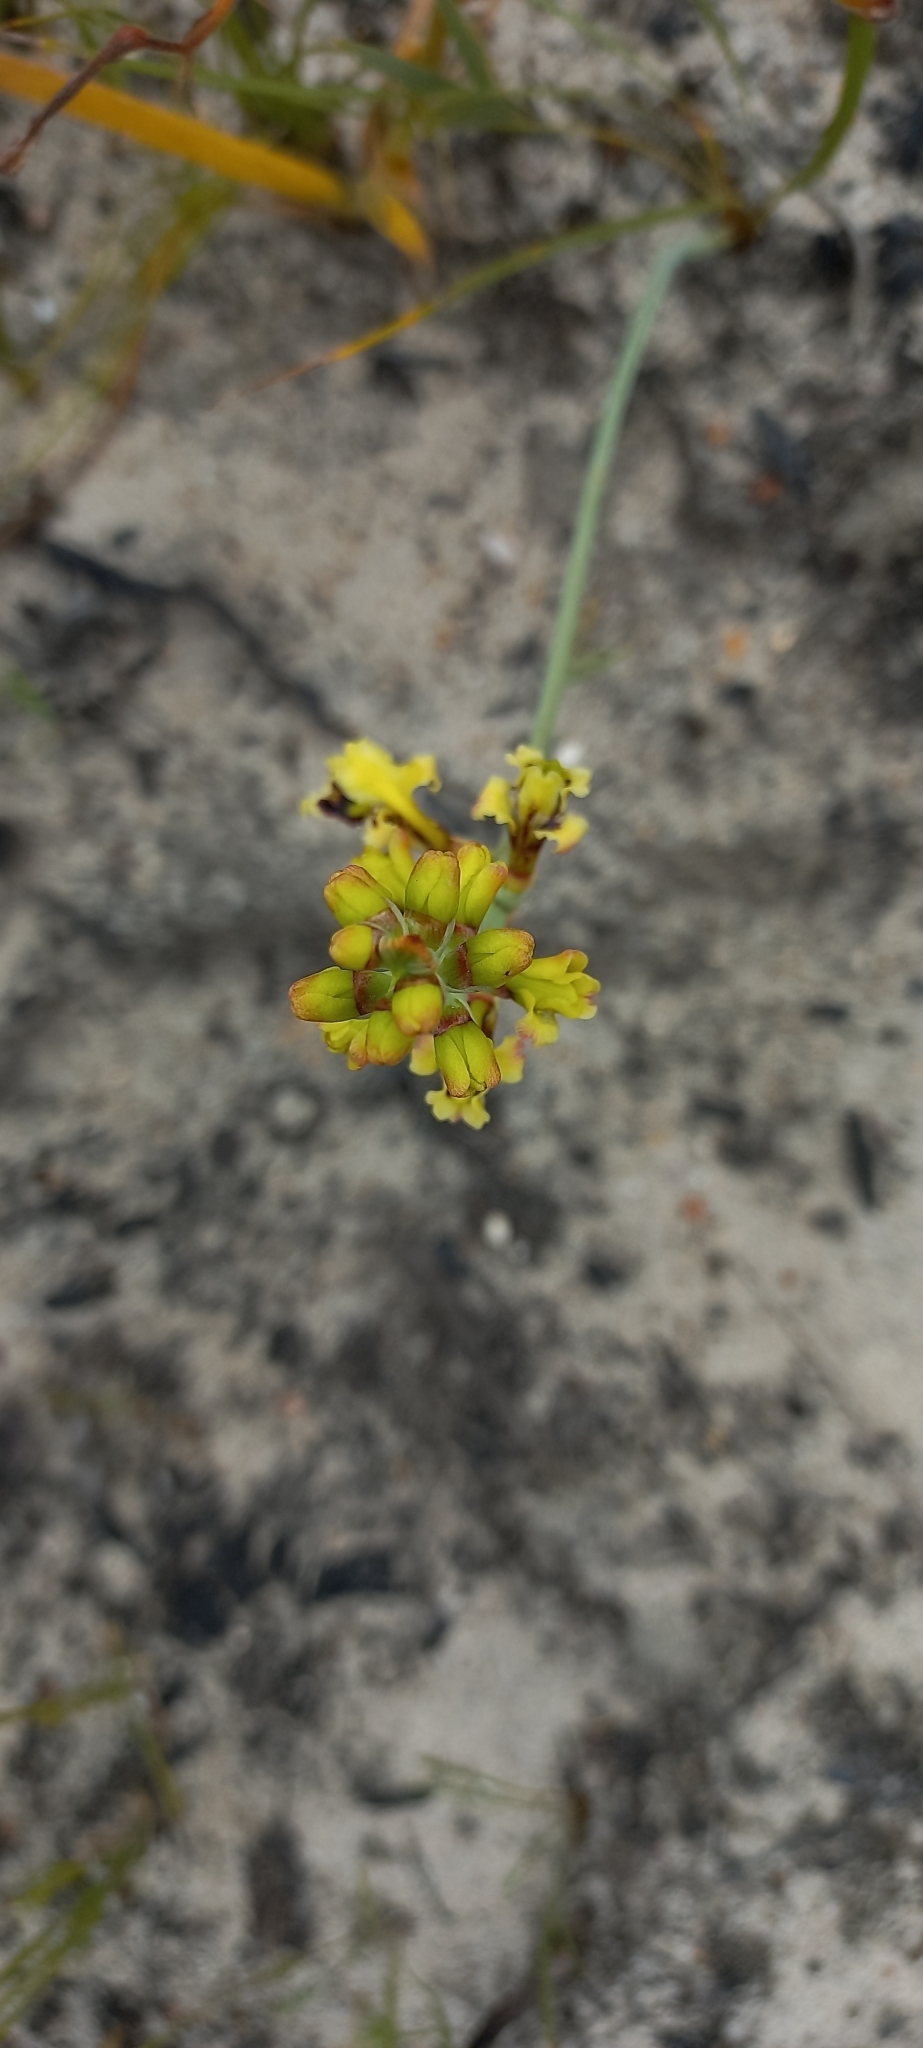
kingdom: Plantae
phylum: Tracheophyta
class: Liliopsida
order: Asparagales
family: Iridaceae
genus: Tritoniopsis
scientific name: Tritoniopsis parviflora
